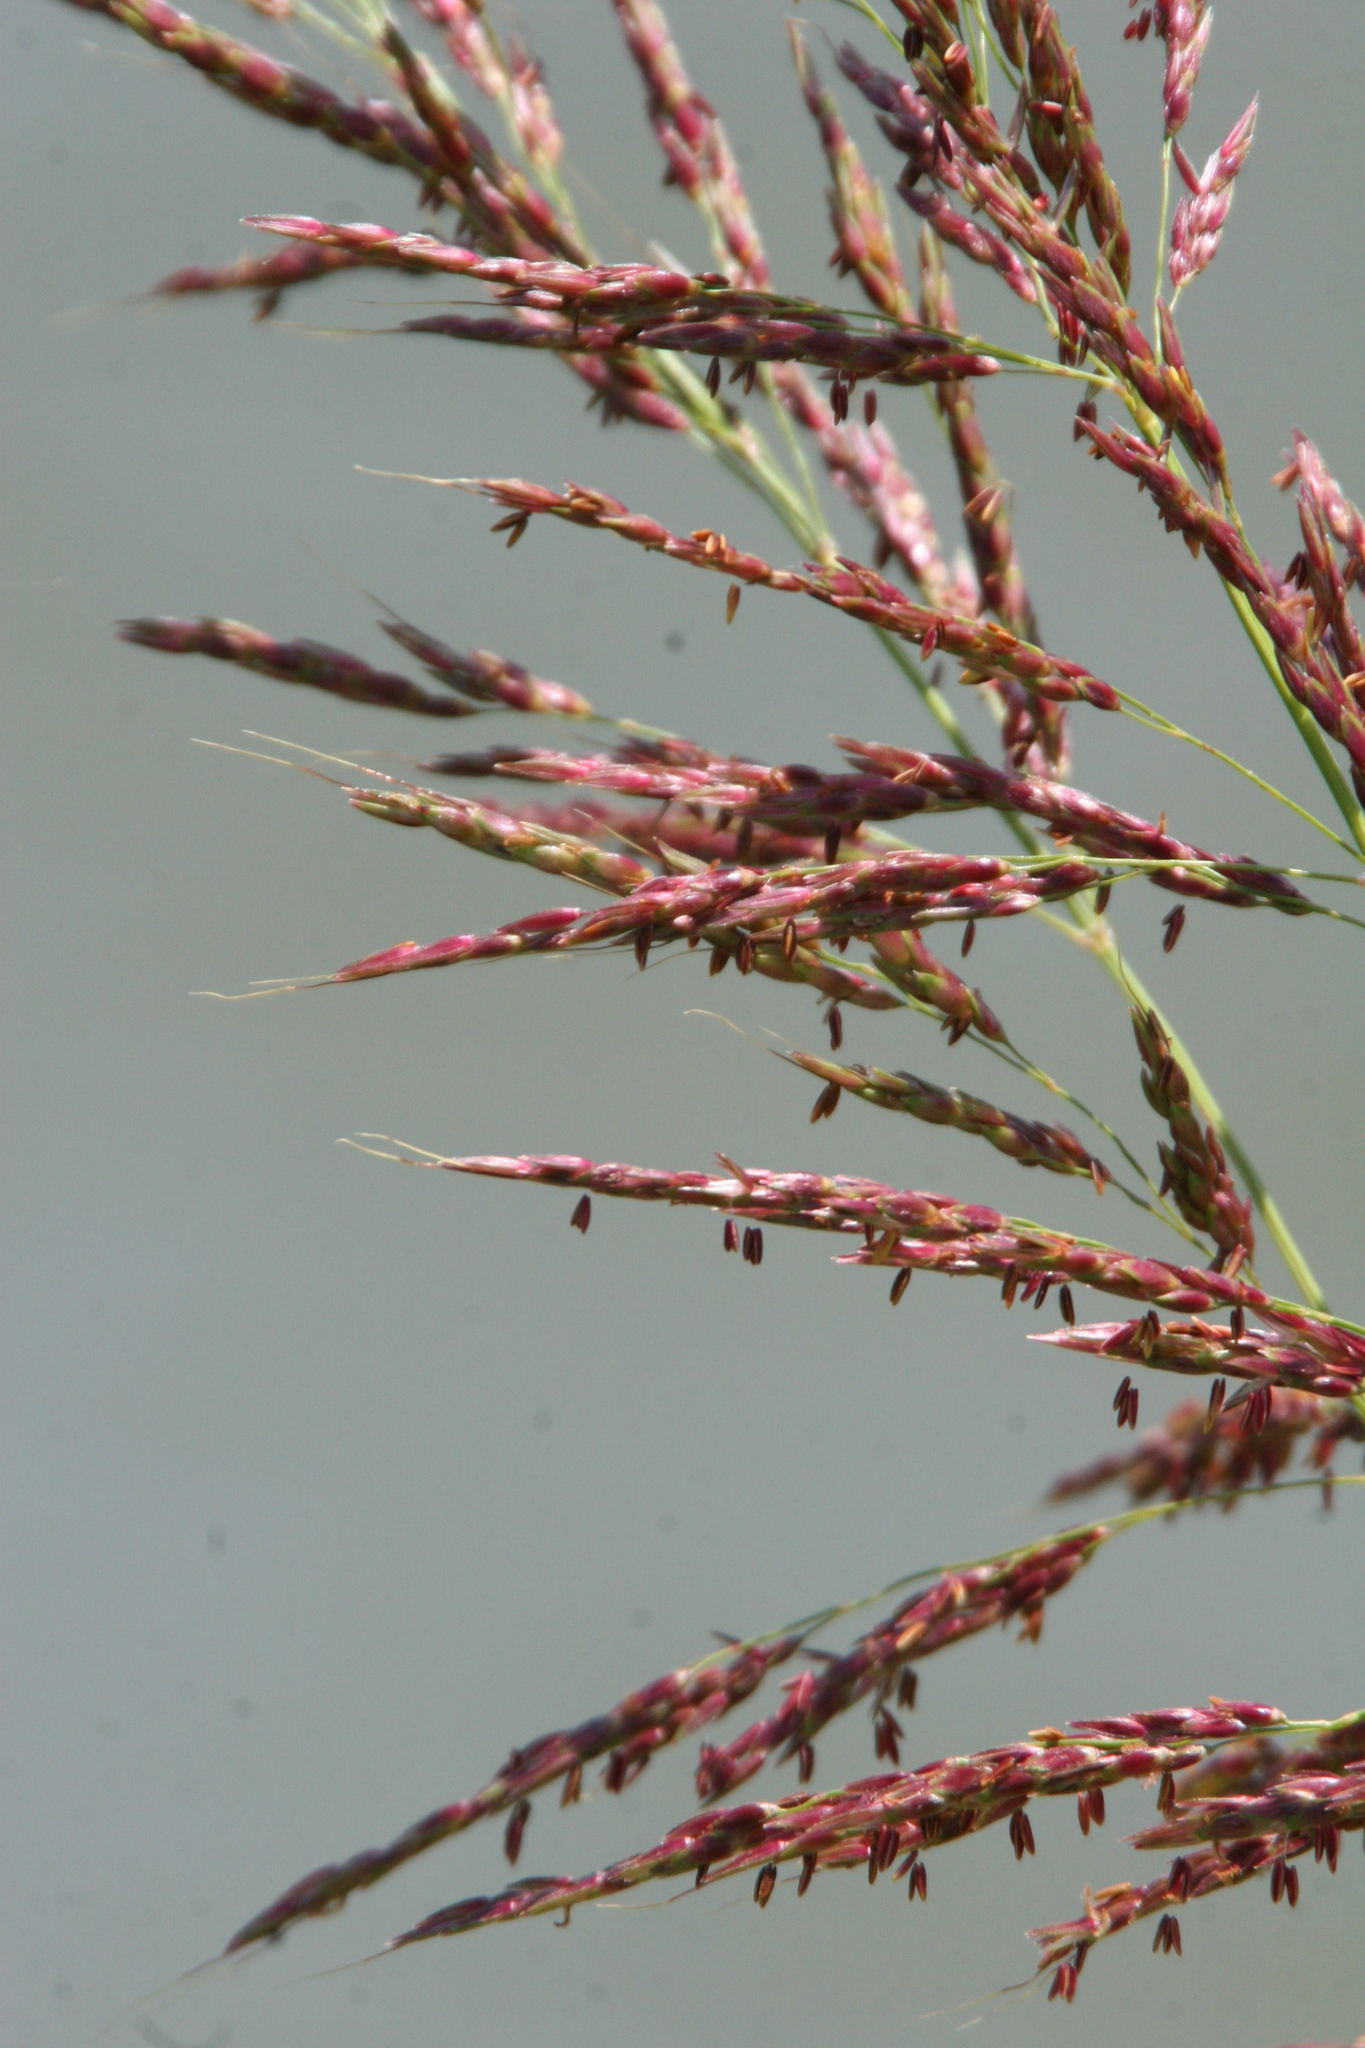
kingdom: Plantae
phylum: Tracheophyta
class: Liliopsida
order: Poales
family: Poaceae
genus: Sorghum
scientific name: Sorghum halepense
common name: Johnson-grass
